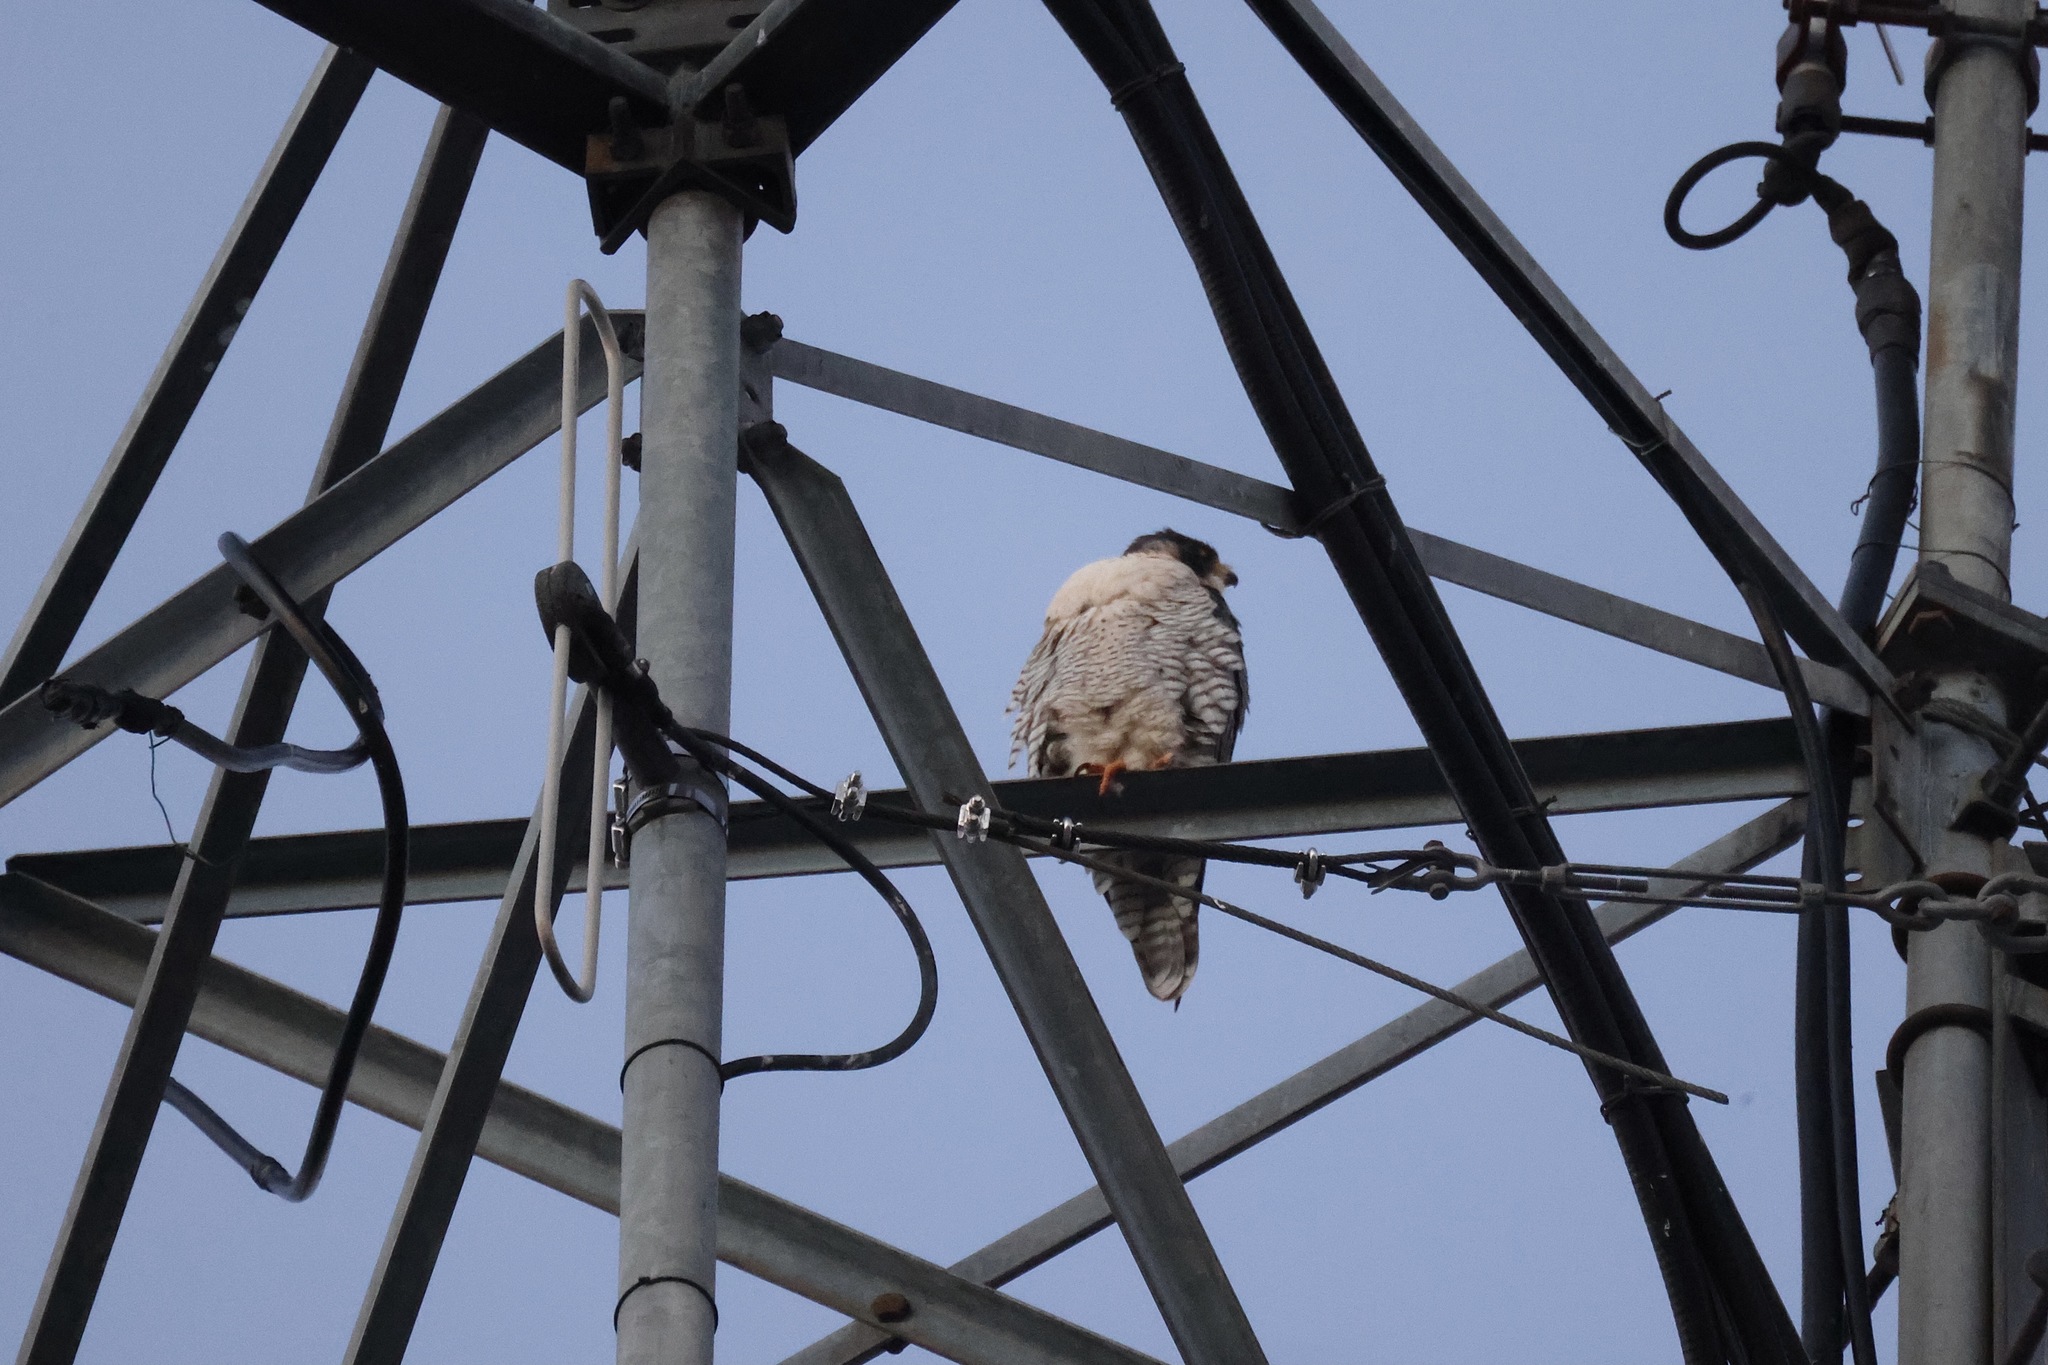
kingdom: Animalia
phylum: Chordata
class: Aves
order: Falconiformes
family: Falconidae
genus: Falco
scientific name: Falco peregrinus
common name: Peregrine falcon
